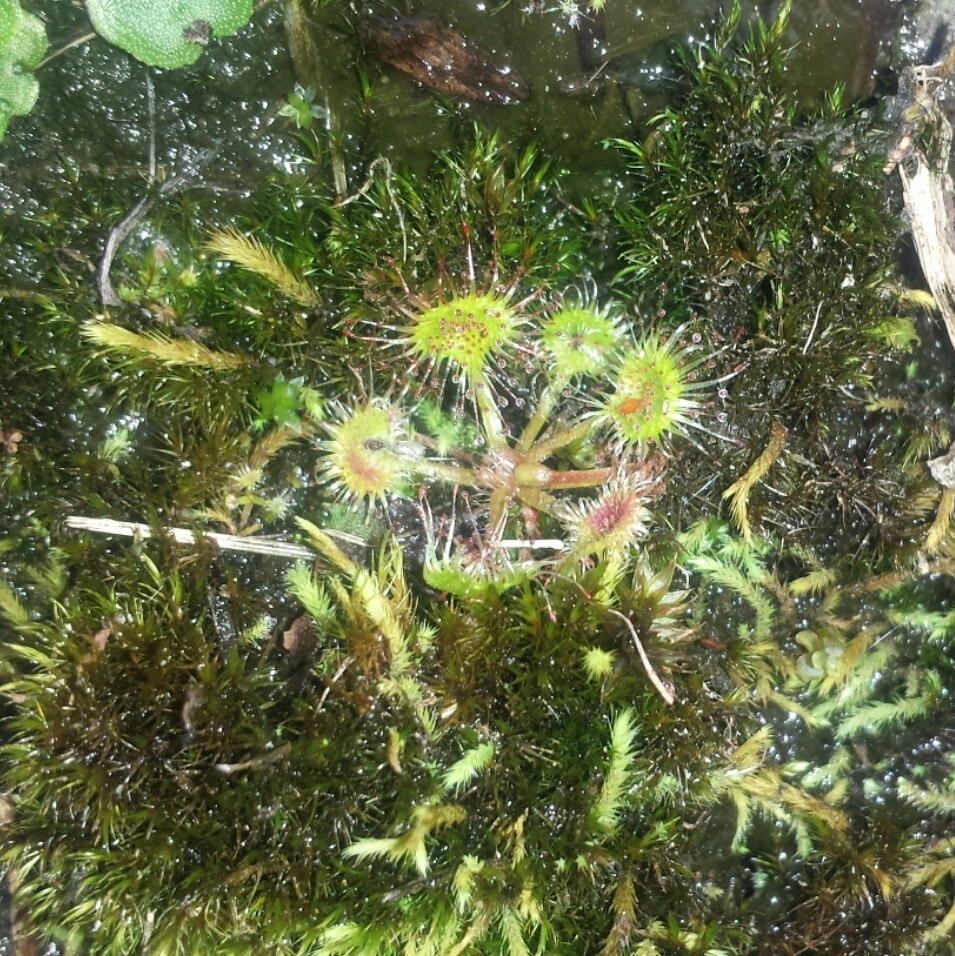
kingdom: Plantae
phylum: Tracheophyta
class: Magnoliopsida
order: Caryophyllales
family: Droseraceae
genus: Drosera
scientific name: Drosera rotundifolia
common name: Round-leaved sundew
